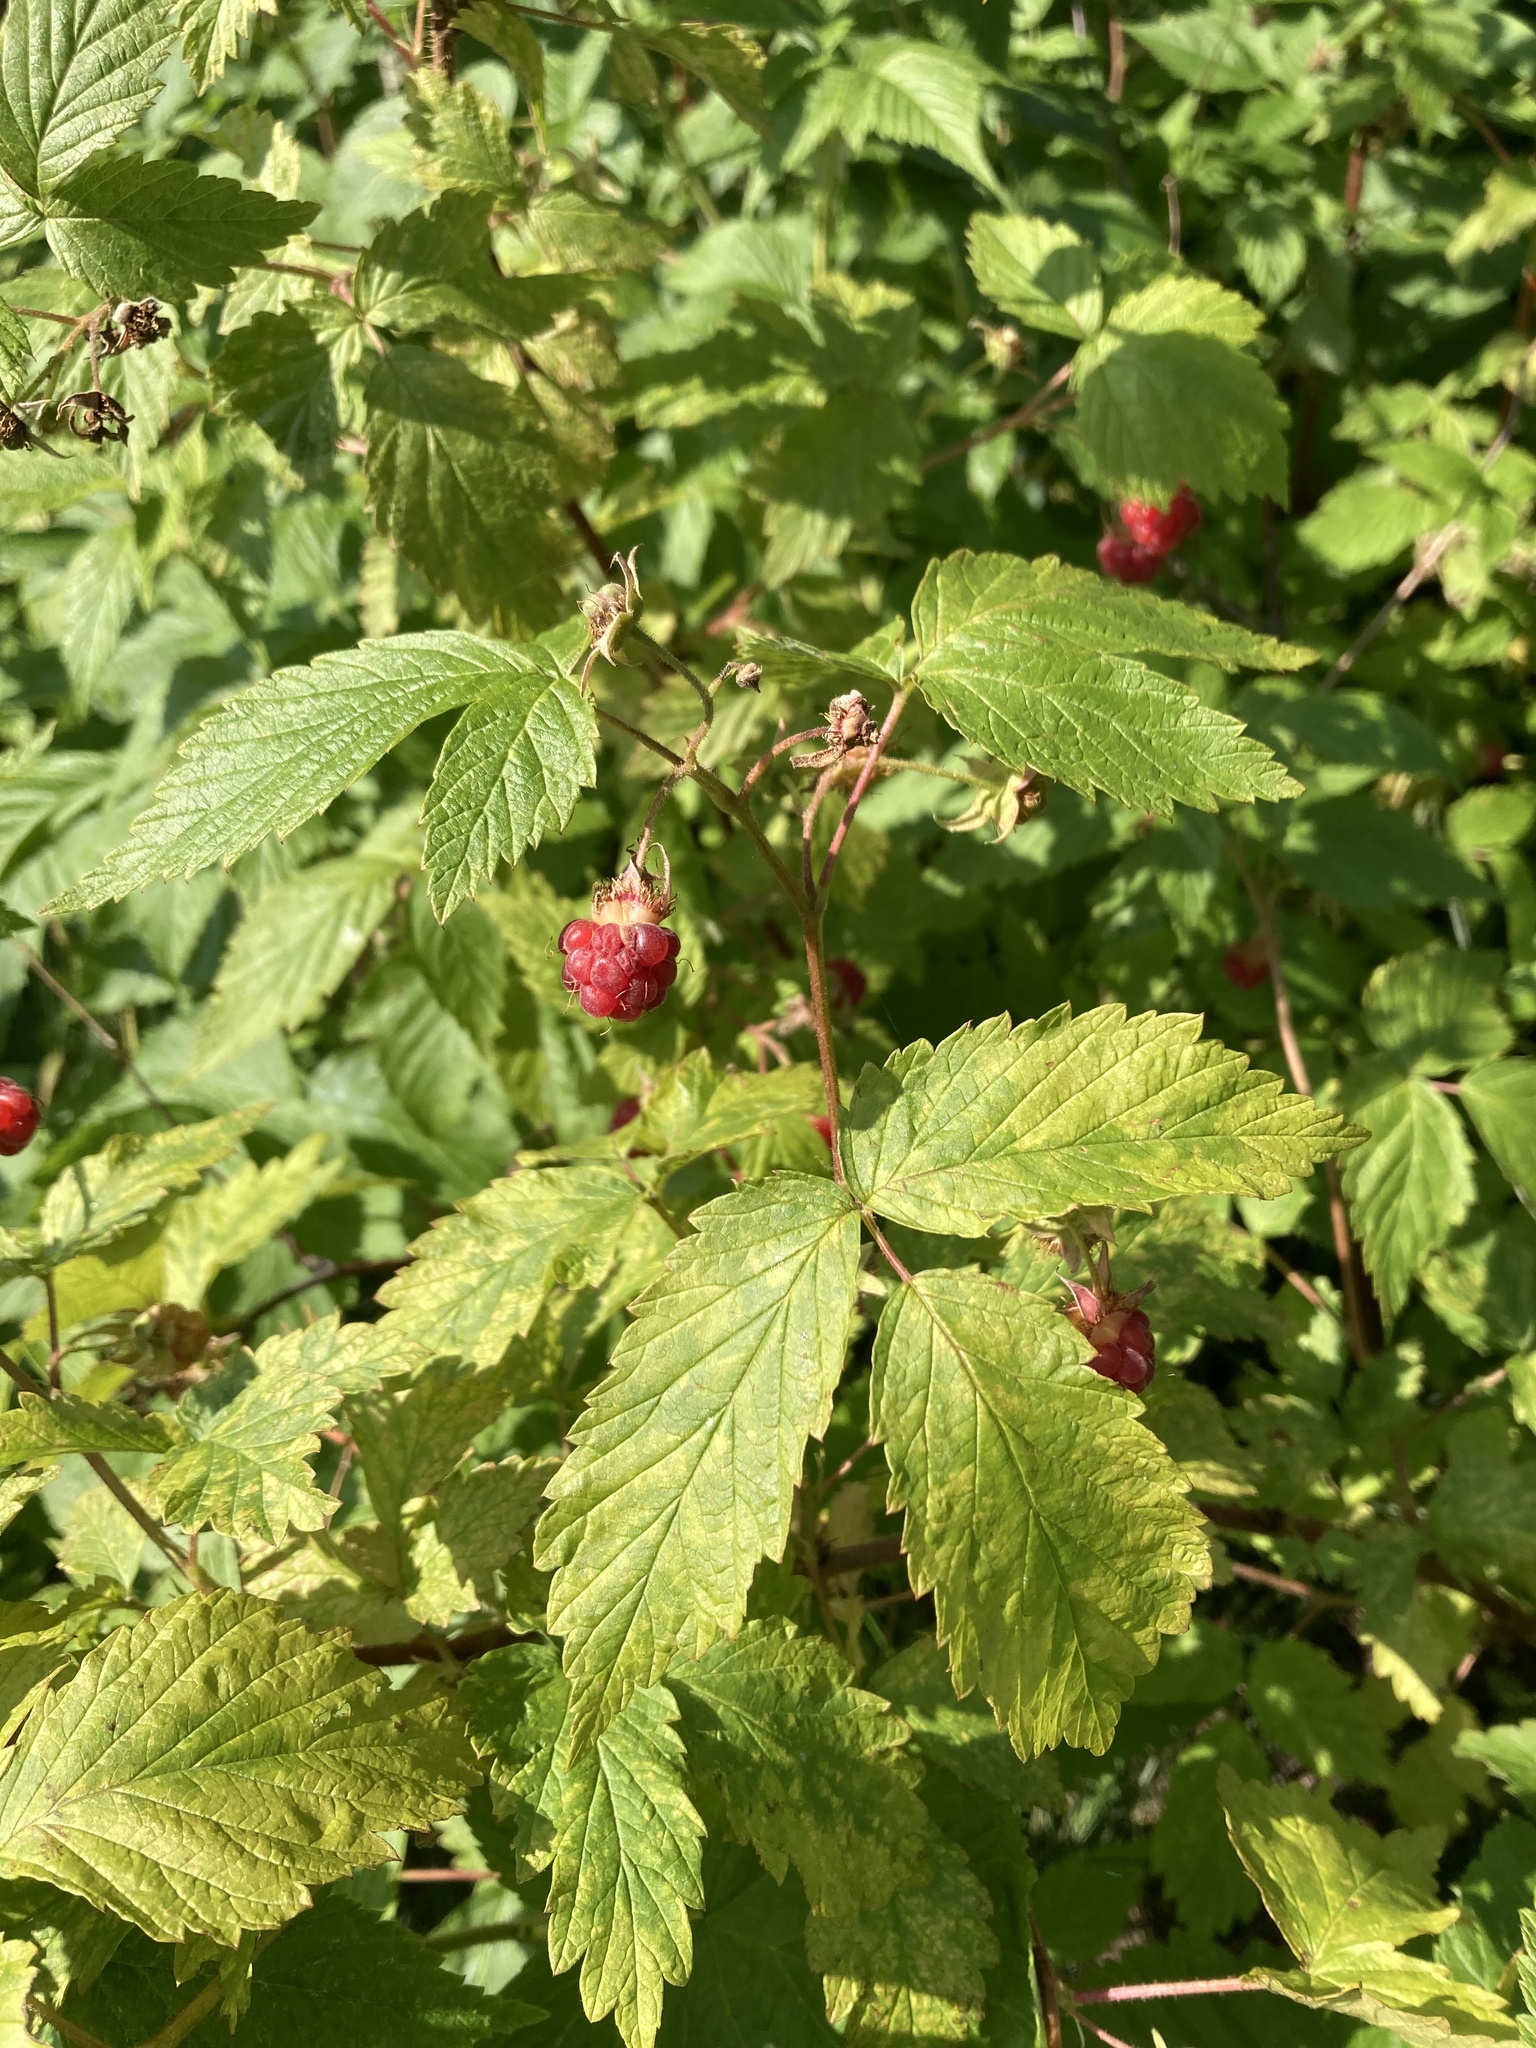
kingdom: Plantae
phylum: Tracheophyta
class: Magnoliopsida
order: Rosales
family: Rosaceae
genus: Rubus
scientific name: Rubus idaeus
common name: Raspberry
